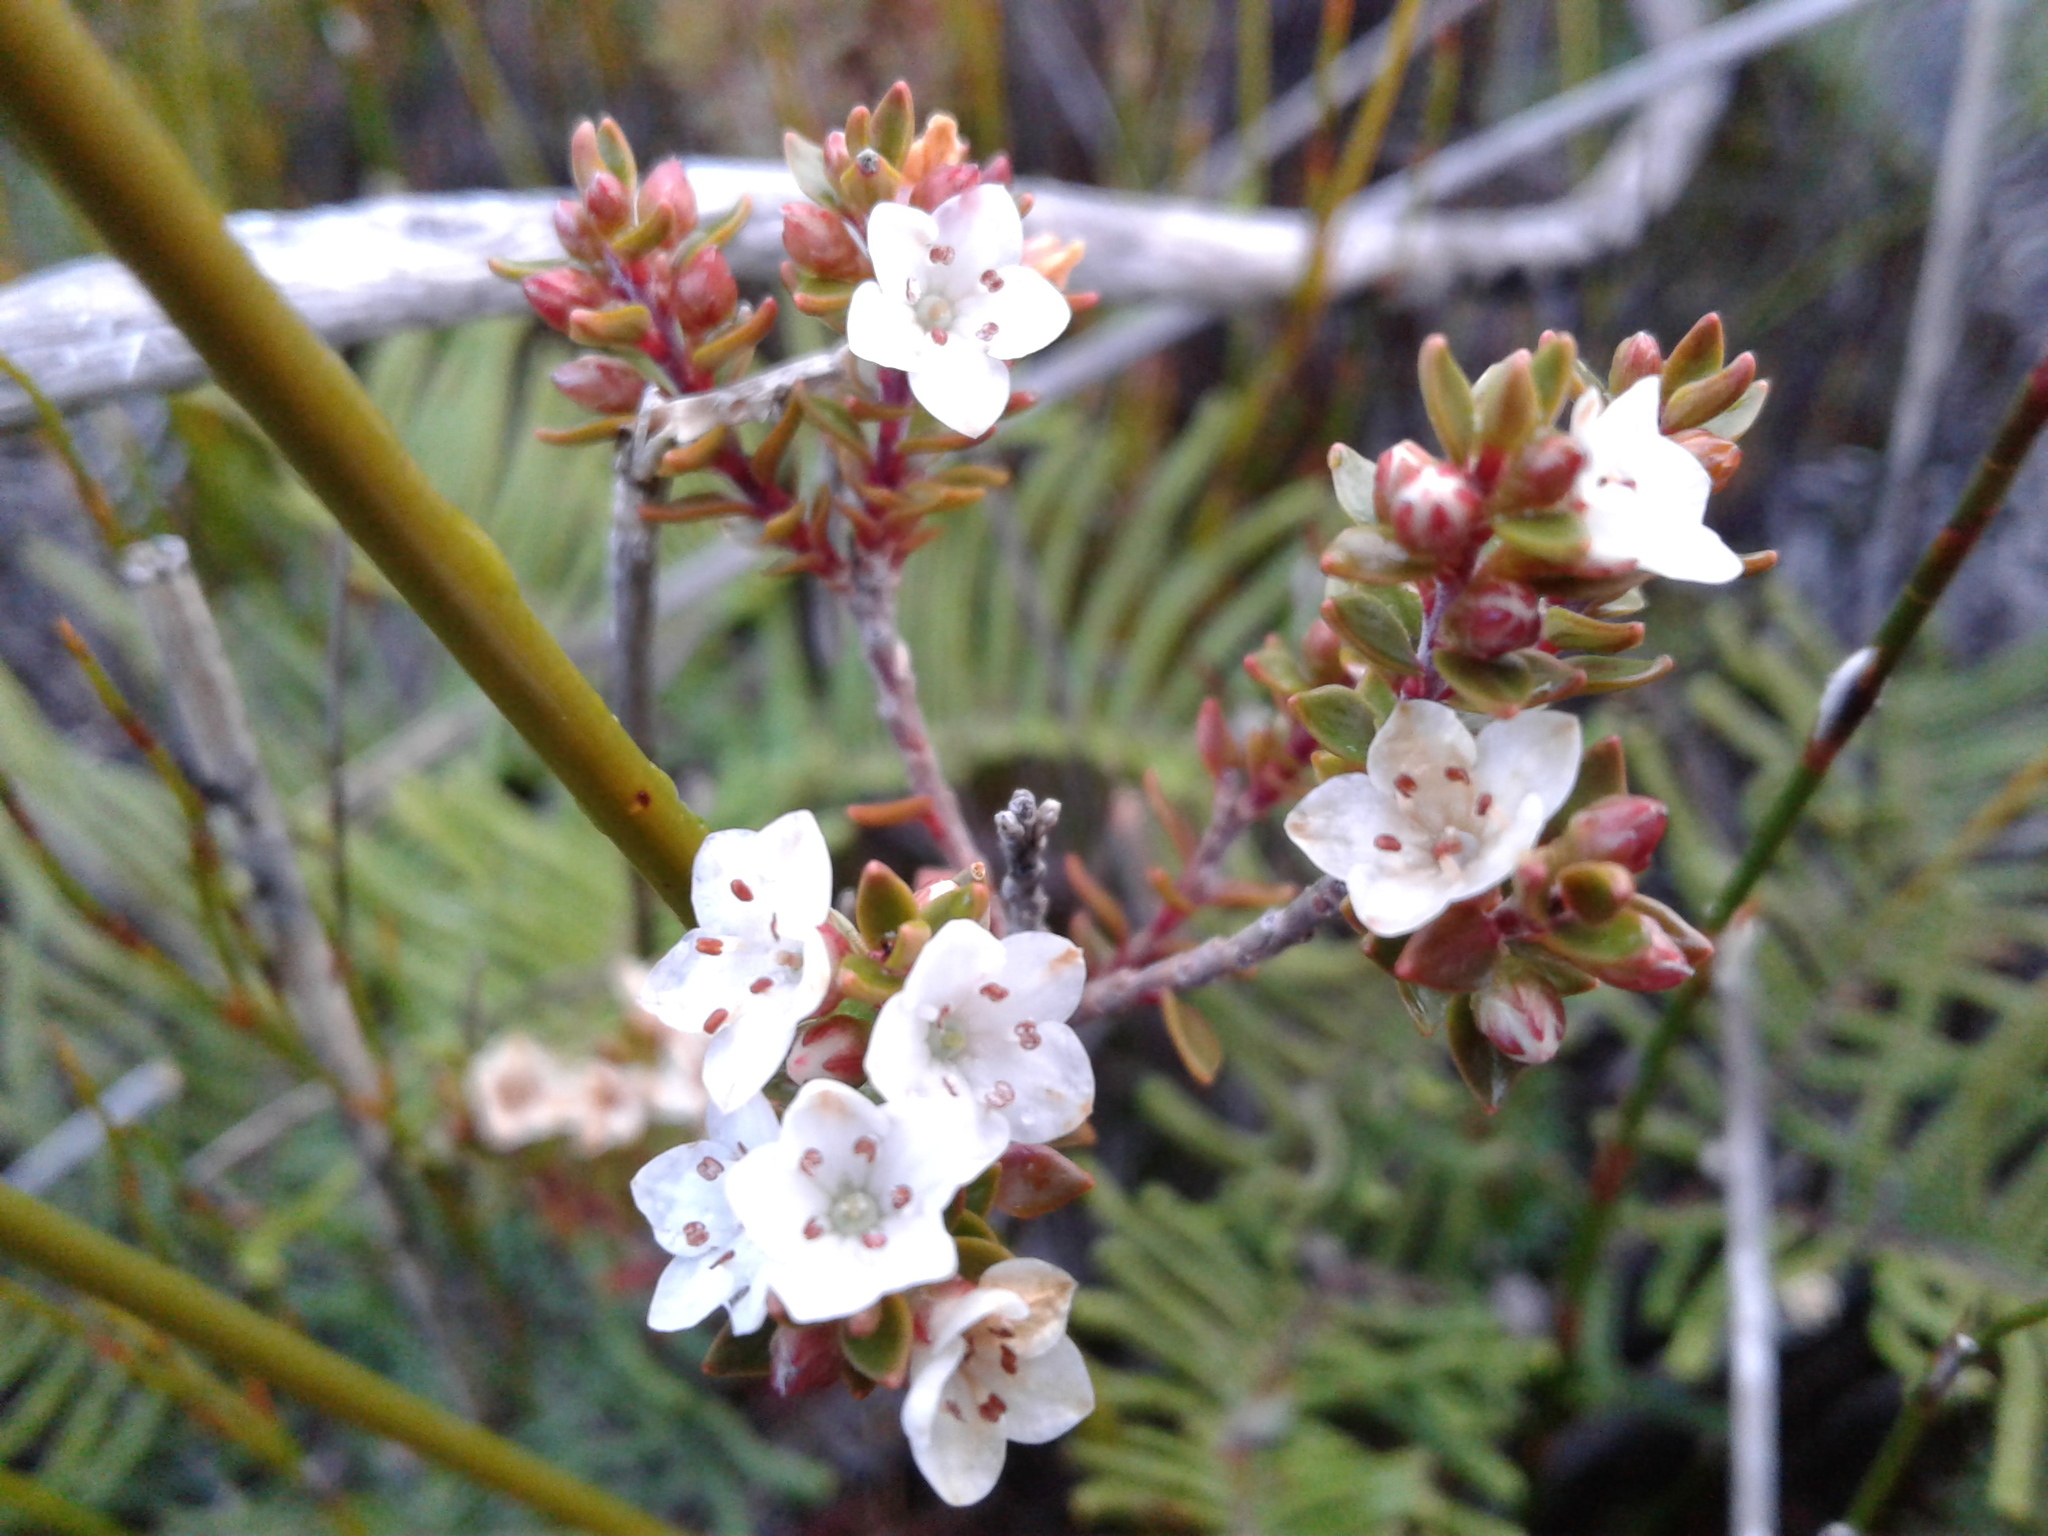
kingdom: Plantae
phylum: Tracheophyta
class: Magnoliopsida
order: Ericales
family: Ericaceae
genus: Epacris
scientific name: Epacris pauciflora
